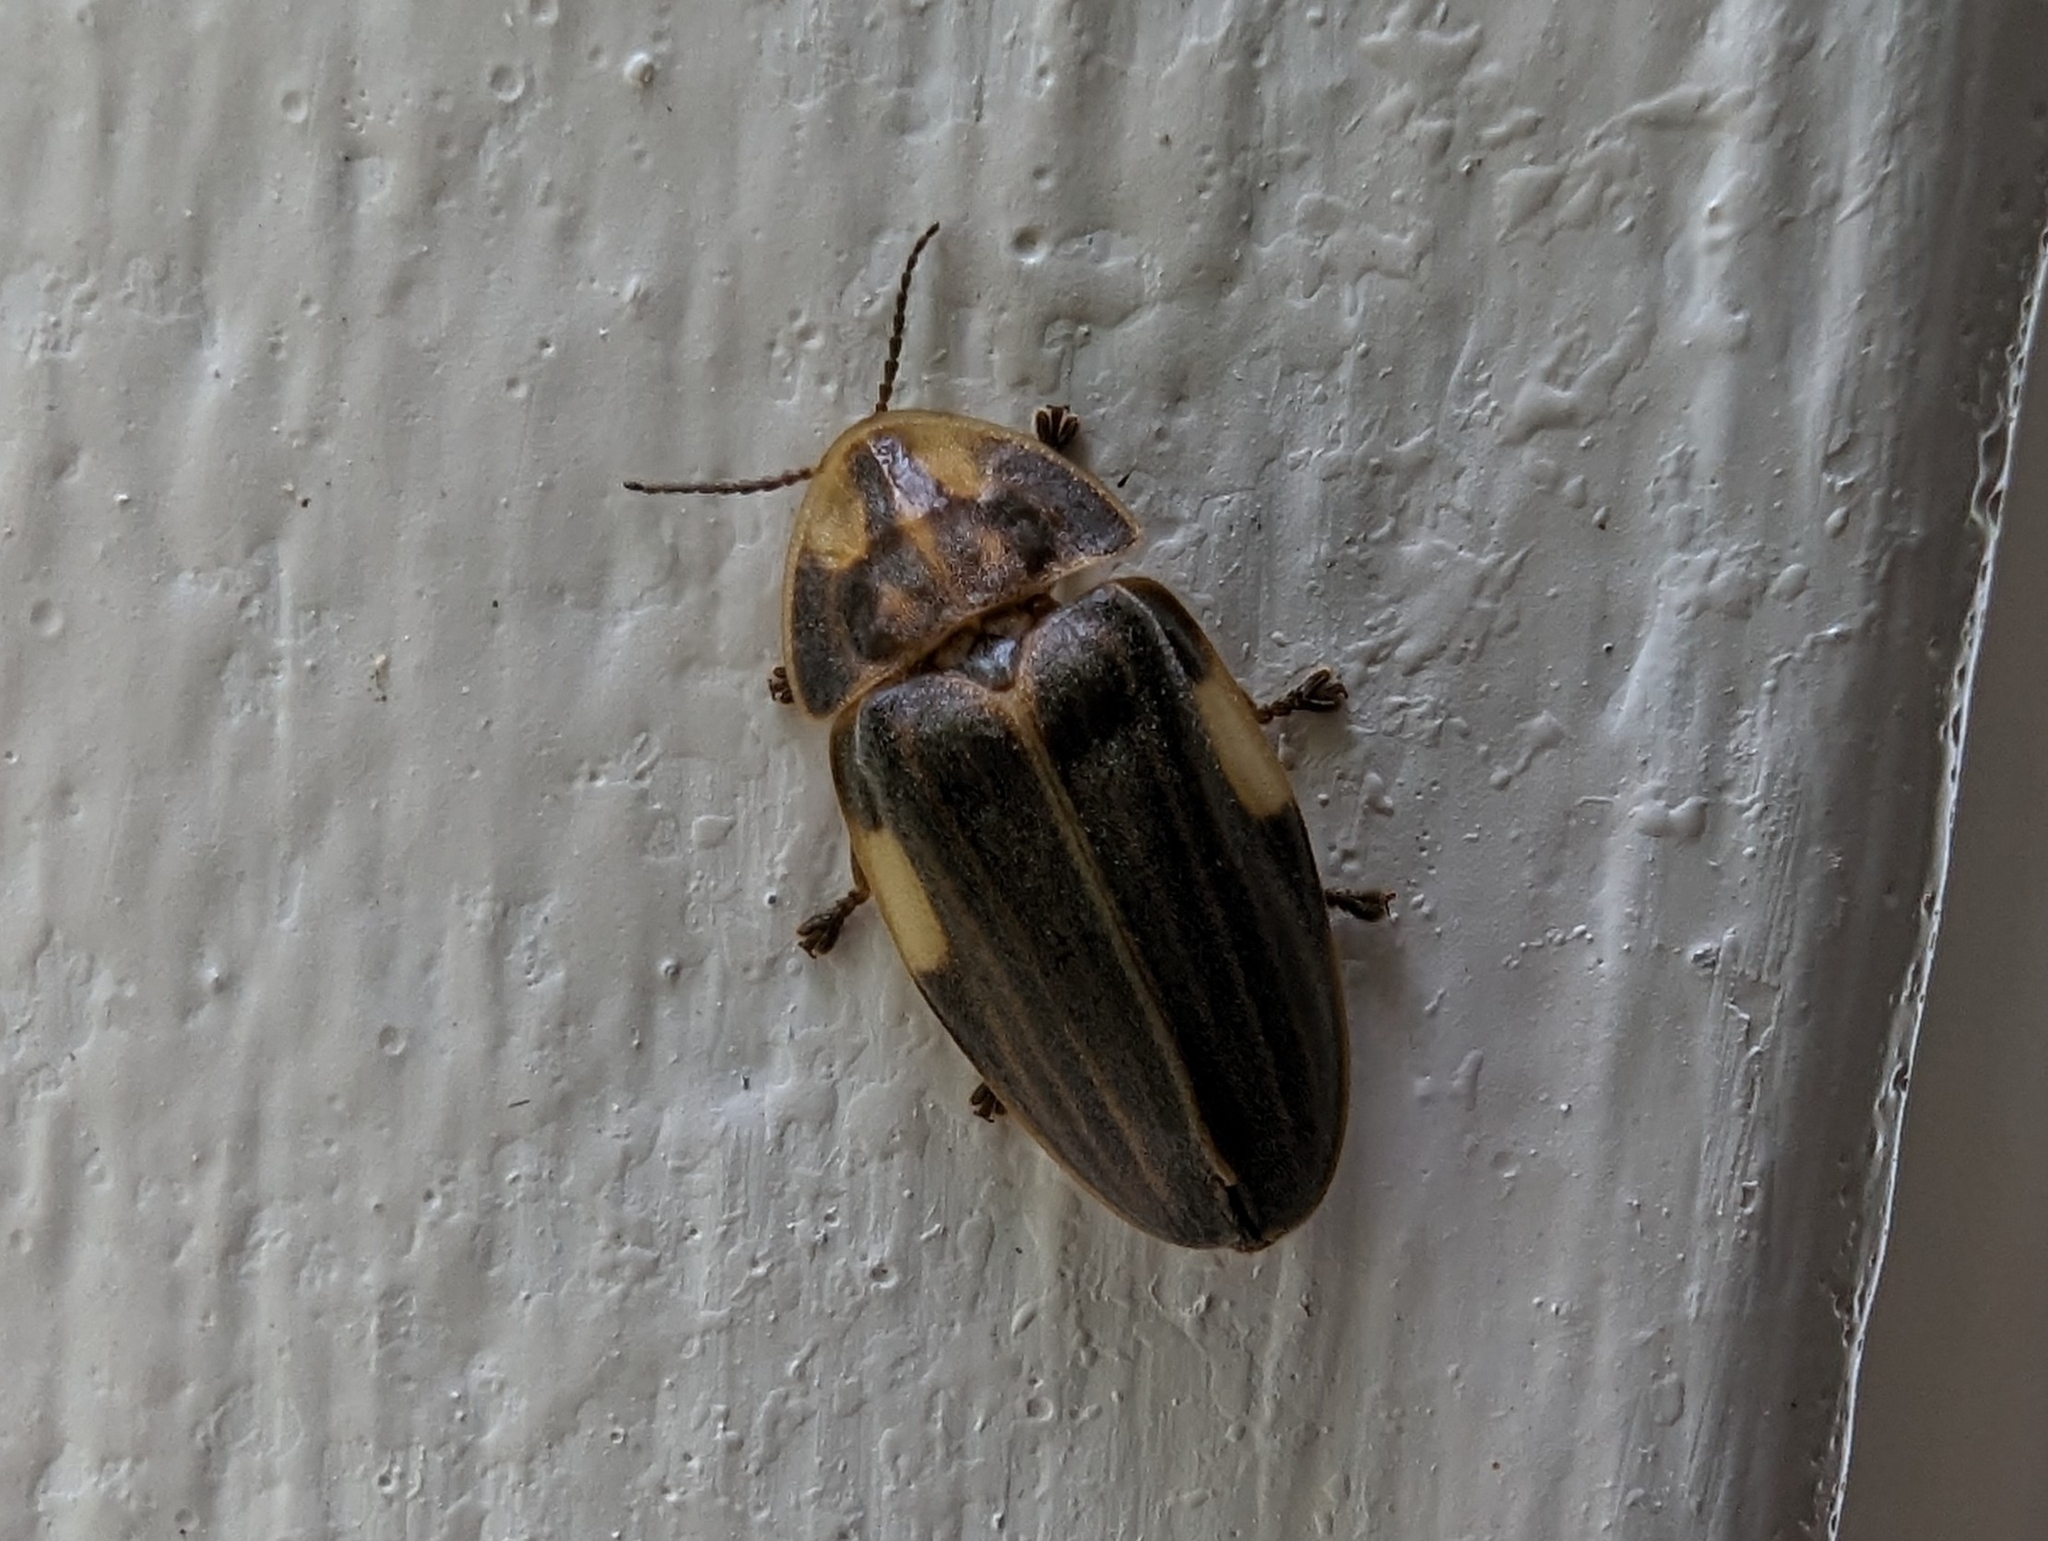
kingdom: Animalia
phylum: Arthropoda
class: Insecta
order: Coleoptera
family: Lampyridae
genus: Aspisoma
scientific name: Aspisoma ignitum
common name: Dixon's striped firefly
